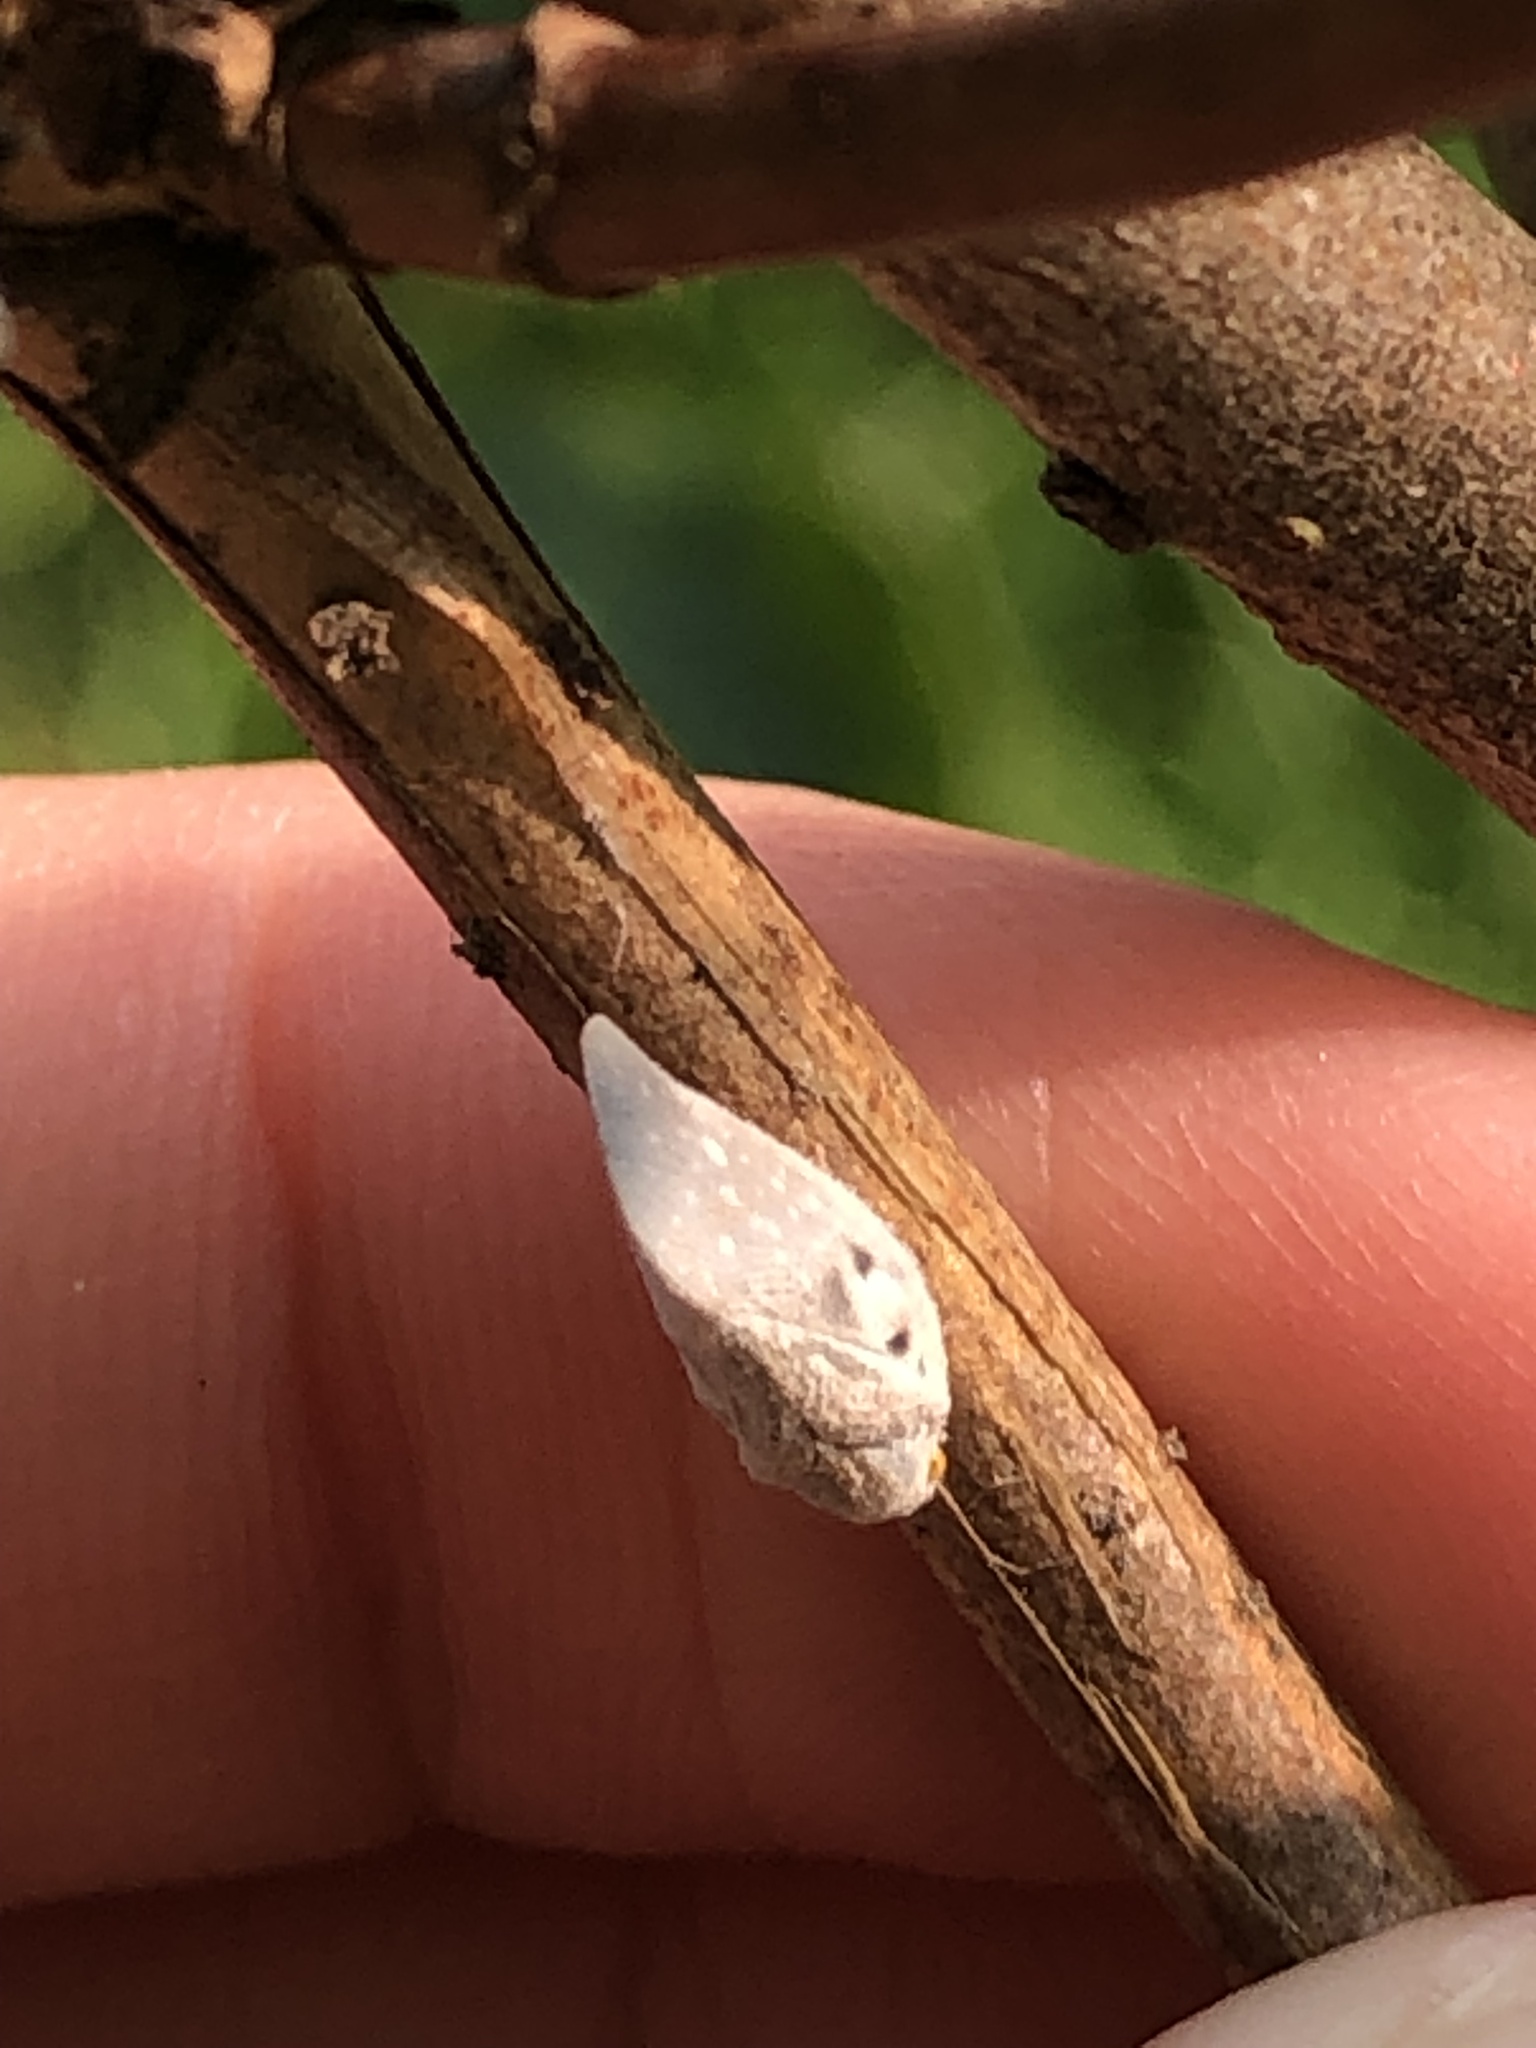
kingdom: Animalia
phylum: Arthropoda
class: Insecta
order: Hemiptera
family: Flatidae
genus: Metcalfa
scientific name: Metcalfa pruinosa
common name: Citrus flatid planthopper
